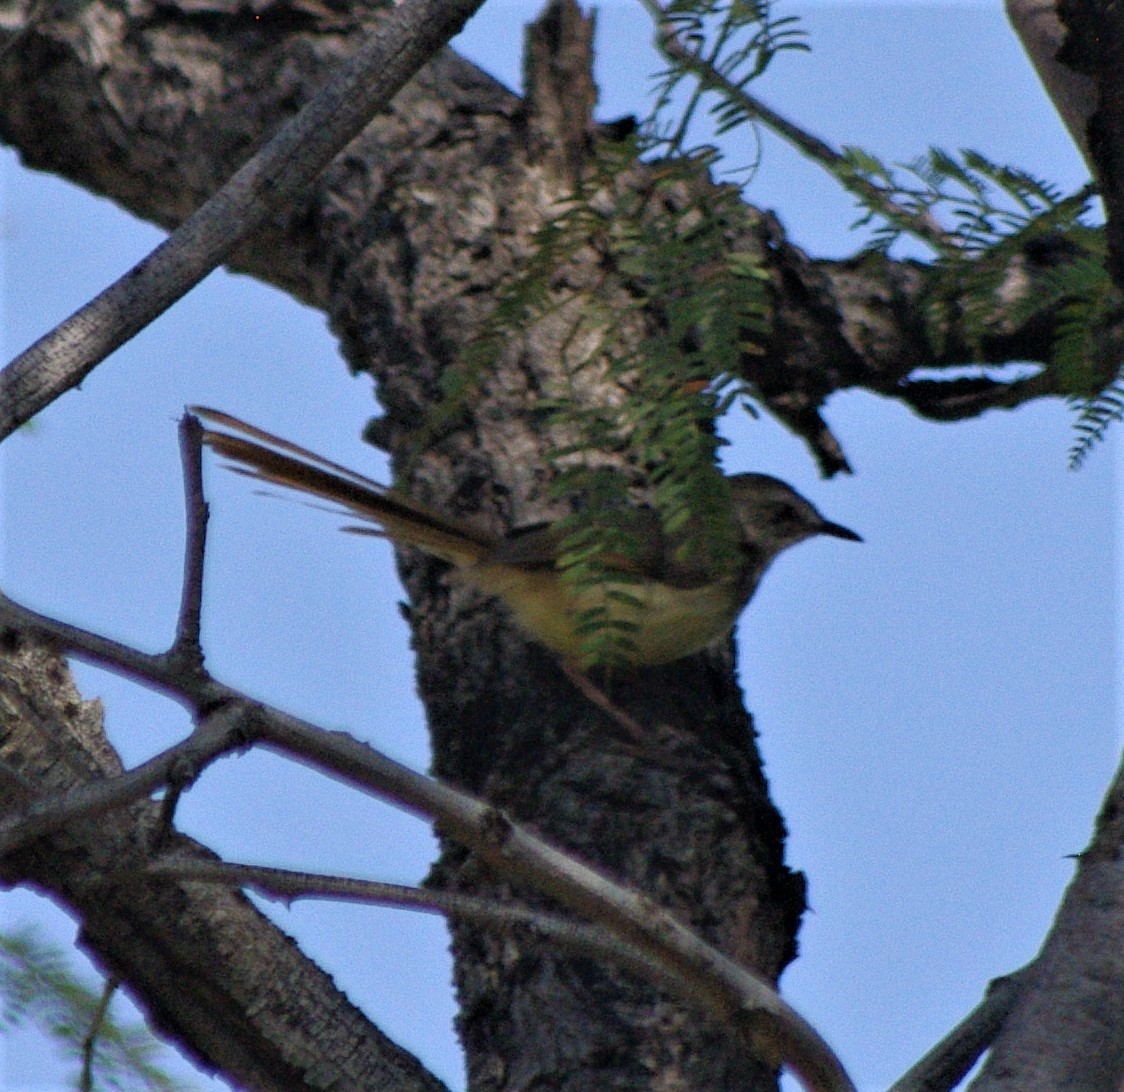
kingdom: Animalia
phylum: Chordata
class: Aves
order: Passeriformes
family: Cisticolidae
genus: Prinia
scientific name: Prinia flavicans
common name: Black-chested prinia
